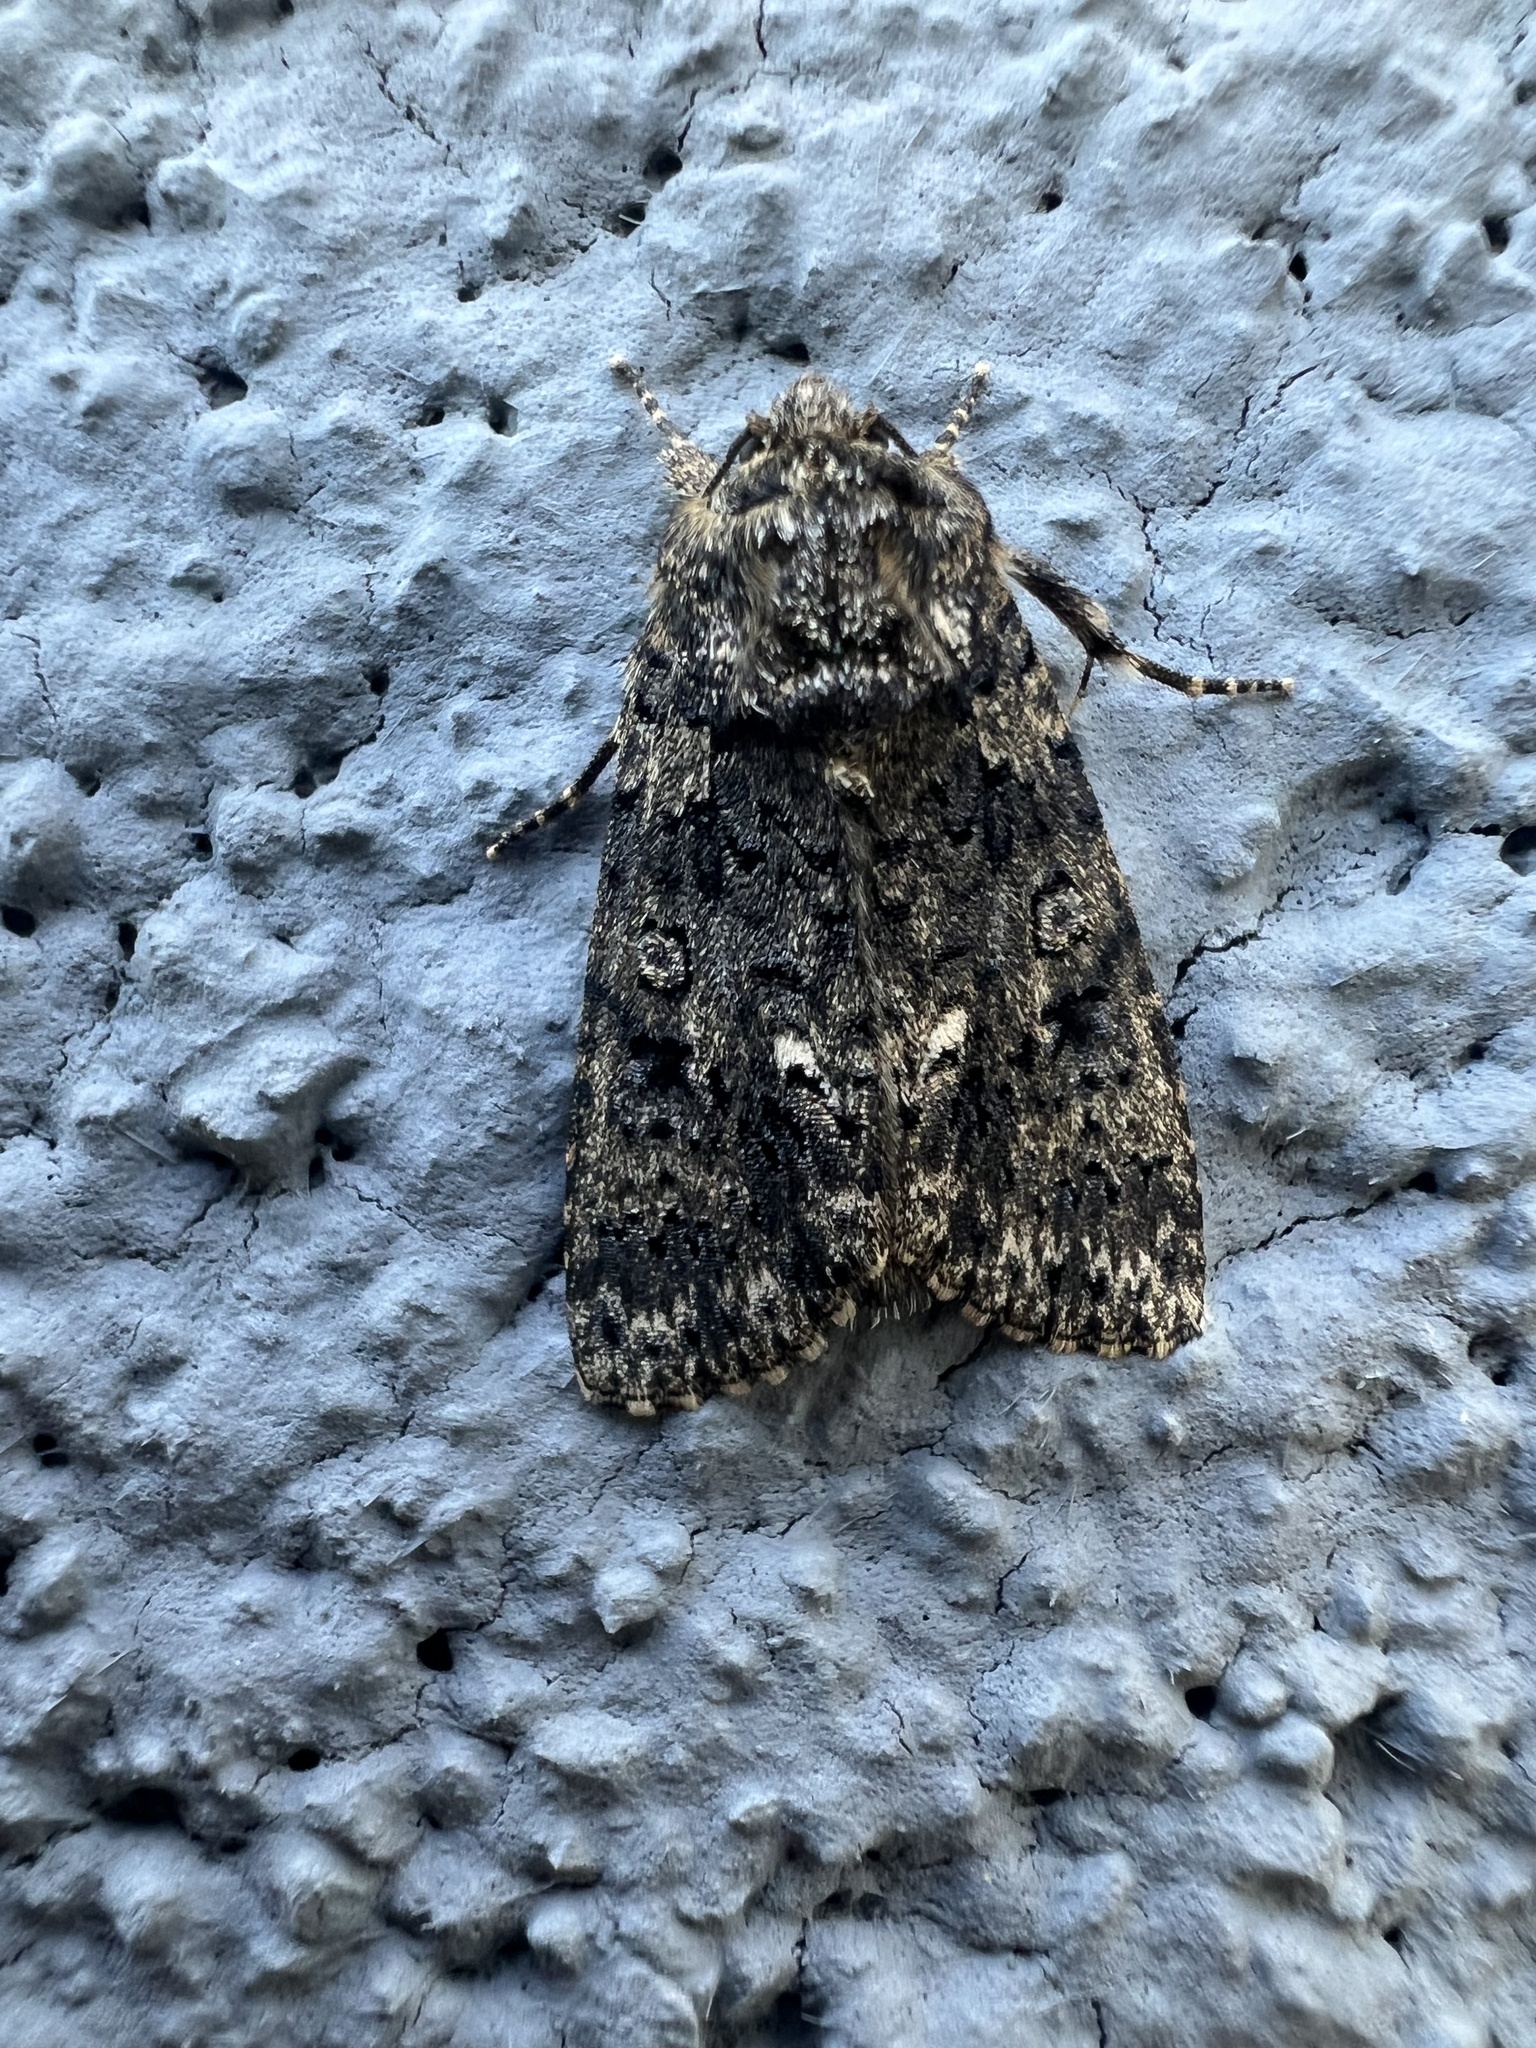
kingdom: Animalia
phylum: Arthropoda
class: Insecta
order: Lepidoptera
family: Noctuidae
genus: Acronicta
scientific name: Acronicta rumicis
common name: Knot grass
